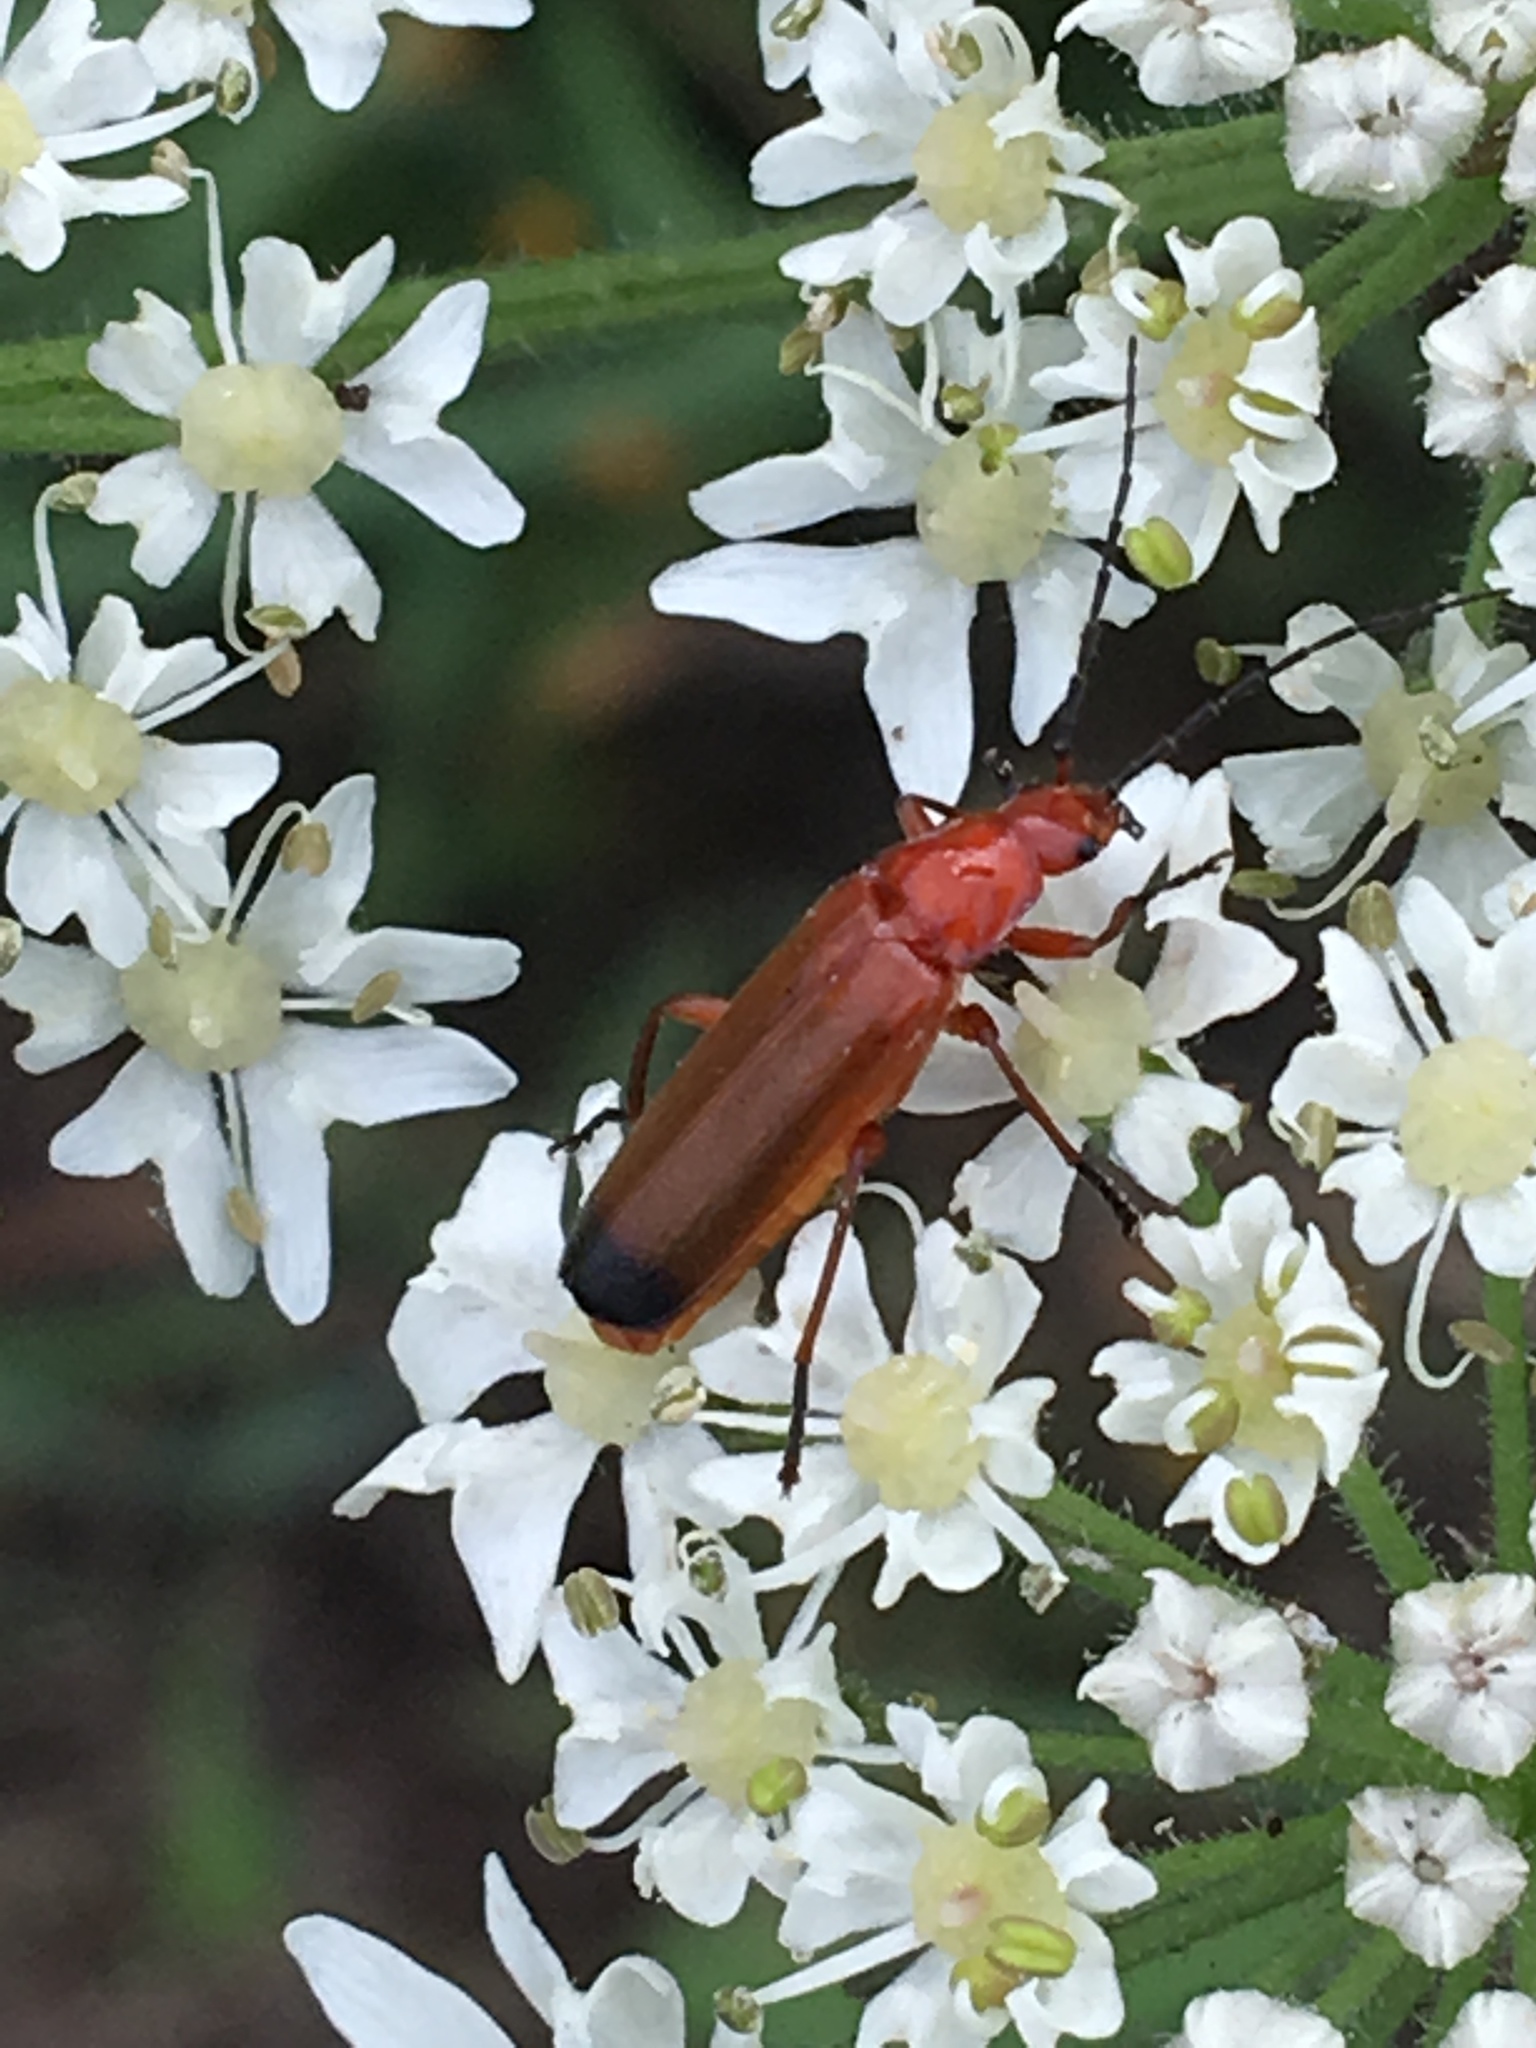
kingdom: Animalia
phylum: Arthropoda
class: Insecta
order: Coleoptera
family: Cantharidae
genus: Rhagonycha
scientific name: Rhagonycha fulva
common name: Common red soldier beetle
